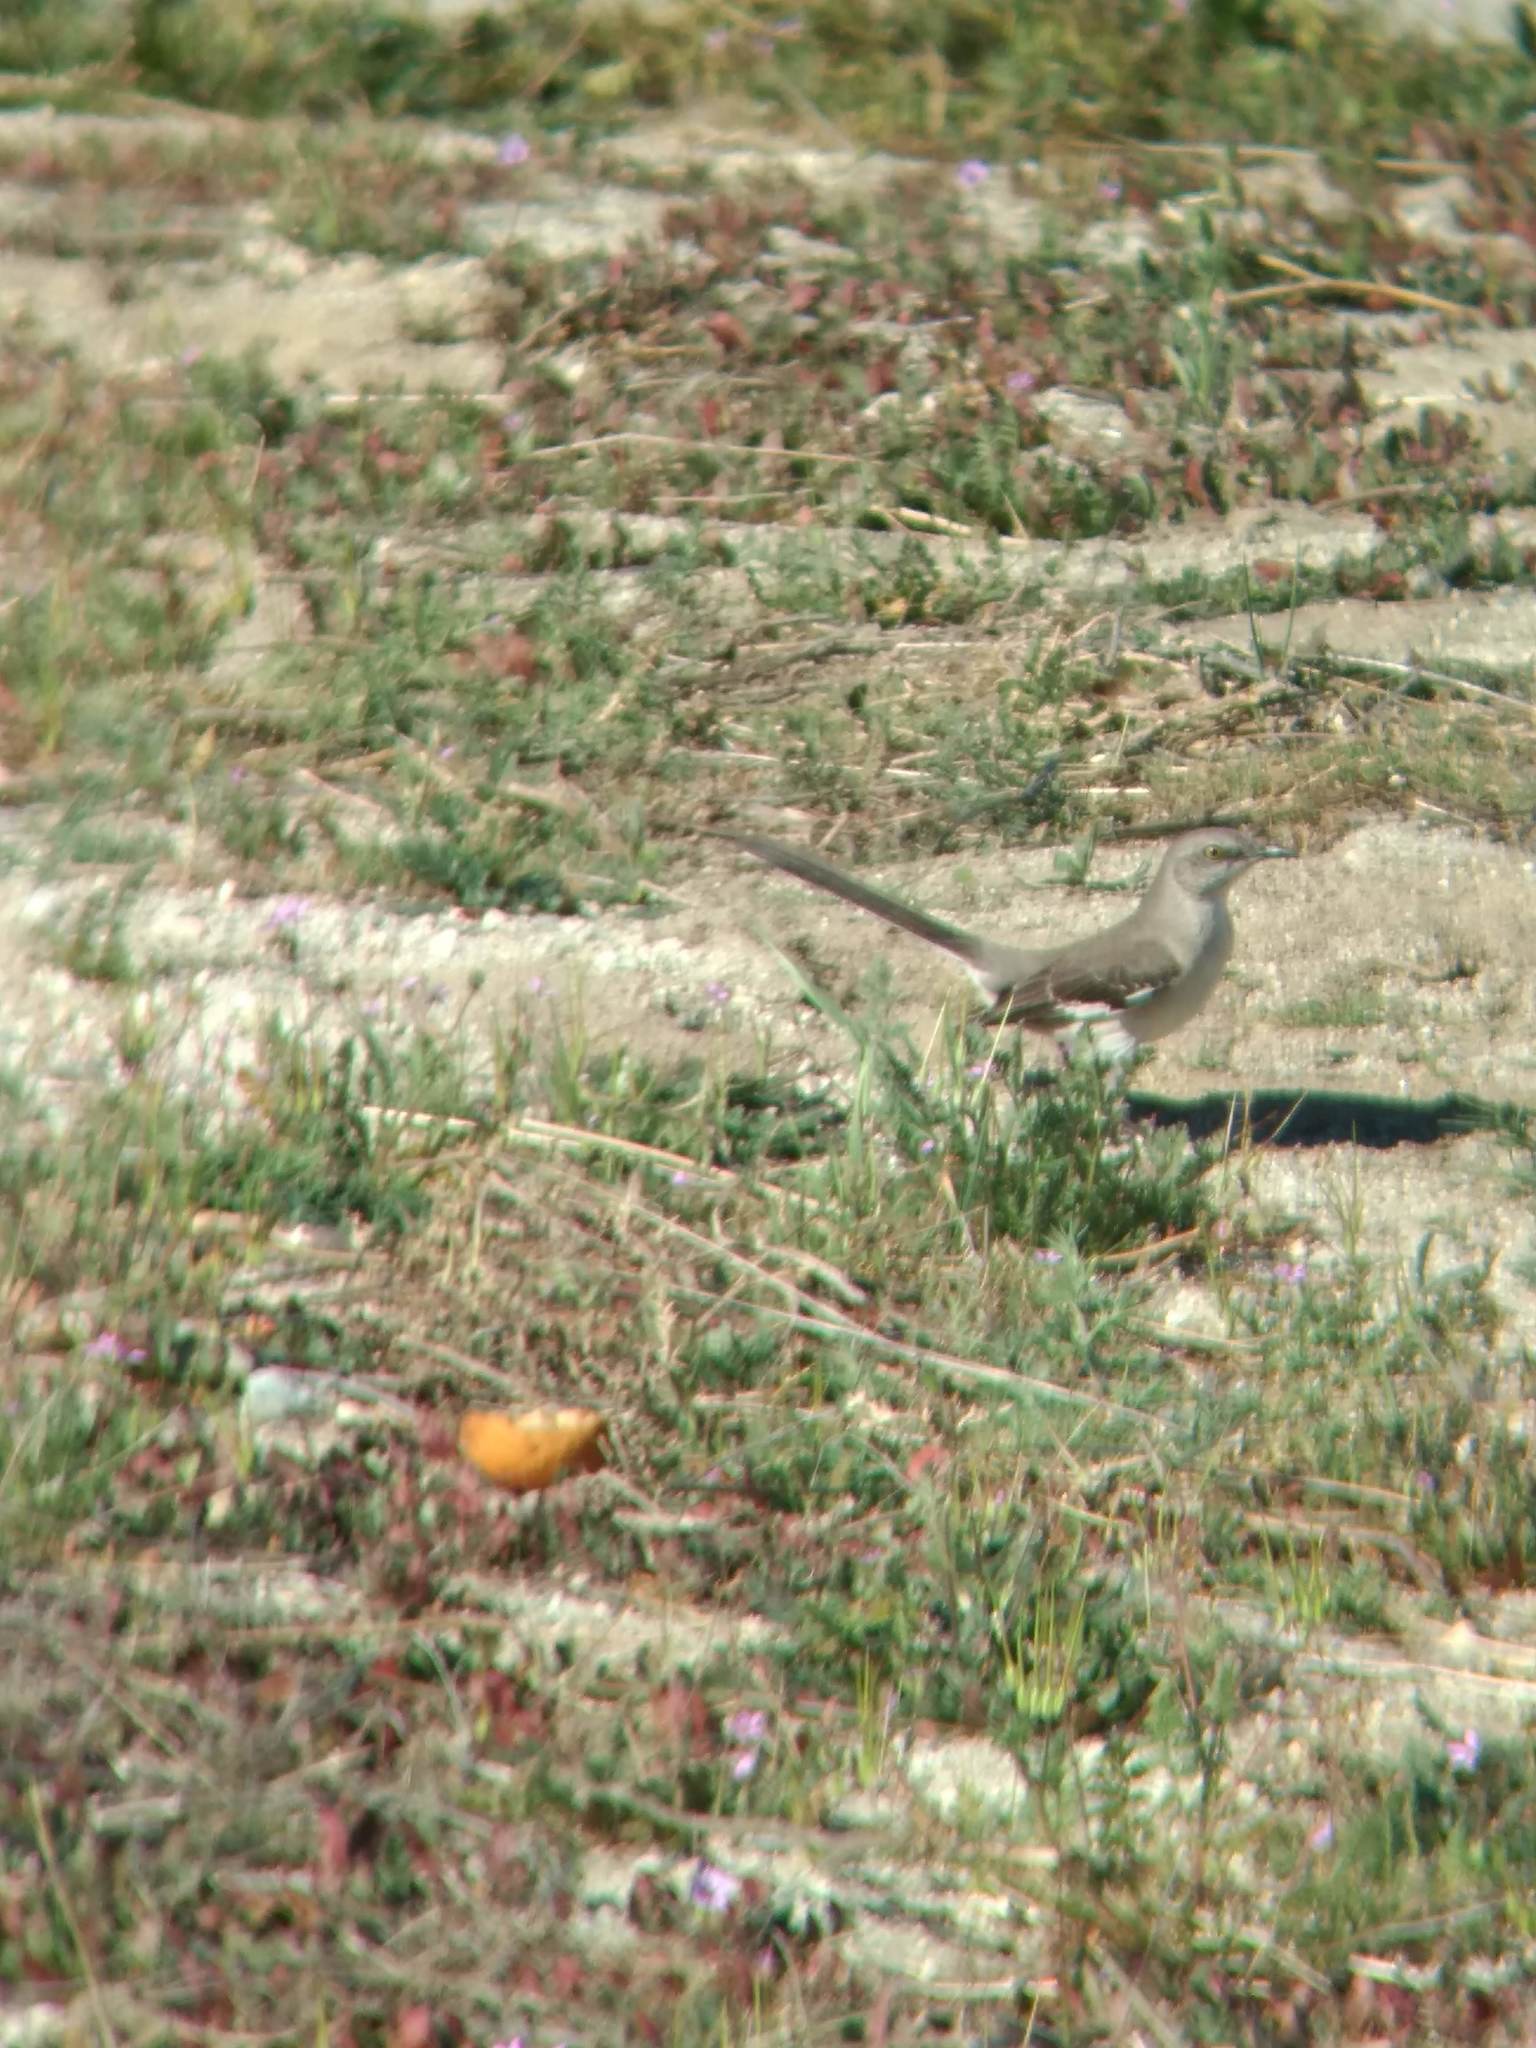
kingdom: Animalia
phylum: Chordata
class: Aves
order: Passeriformes
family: Mimidae
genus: Mimus
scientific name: Mimus polyglottos
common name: Northern mockingbird
